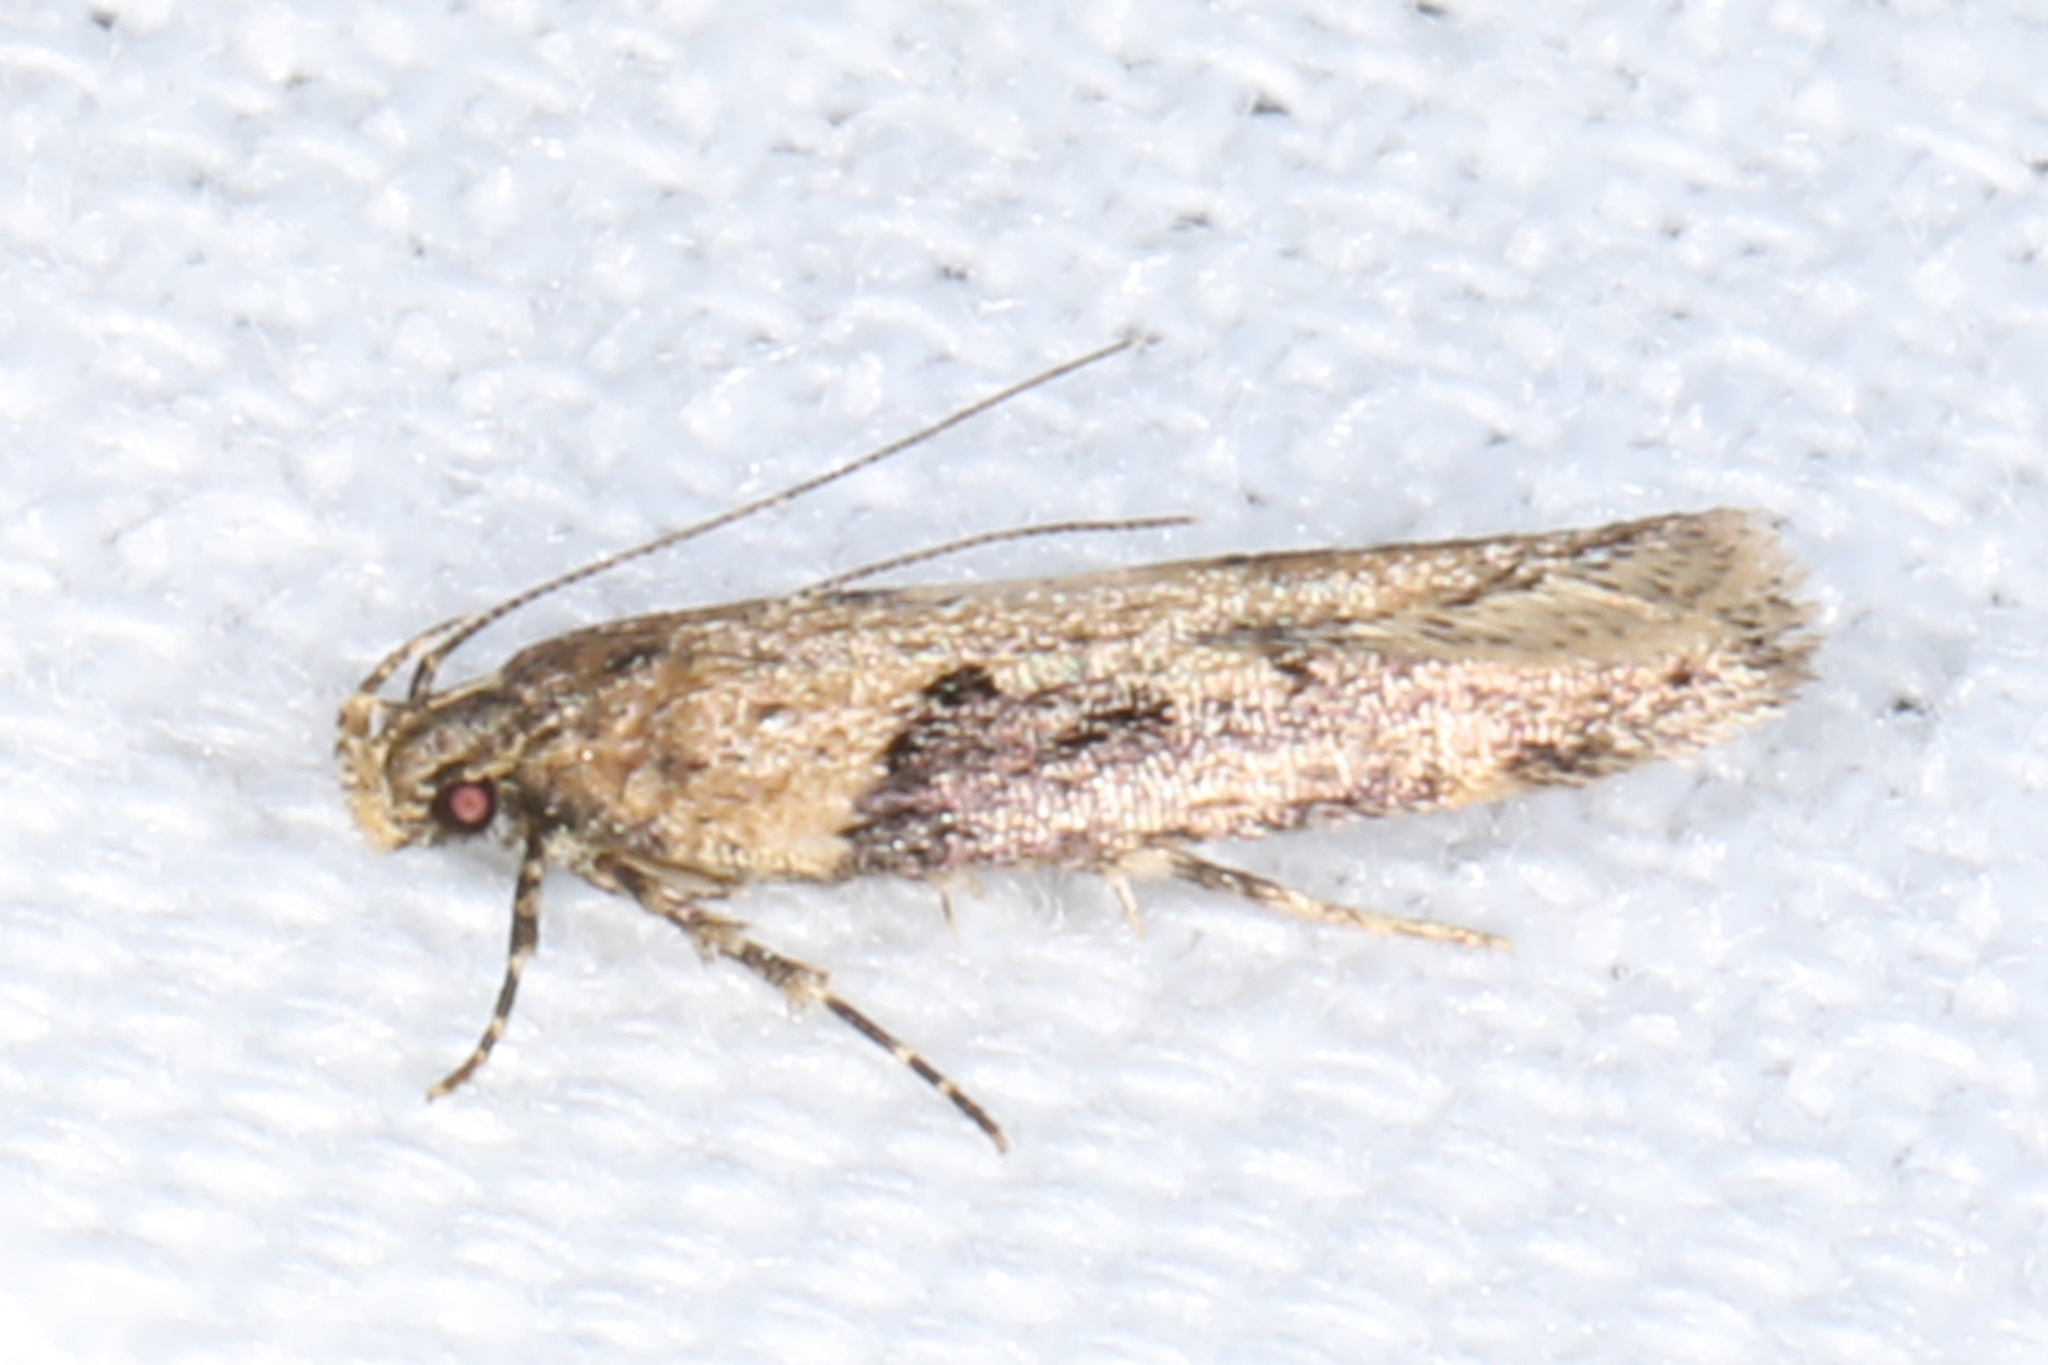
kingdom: Animalia
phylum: Arthropoda
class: Insecta
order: Lepidoptera
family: Gelechiidae
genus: Chionodes
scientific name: Chionodes mediofuscella
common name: Black-smudged chionodes moth
